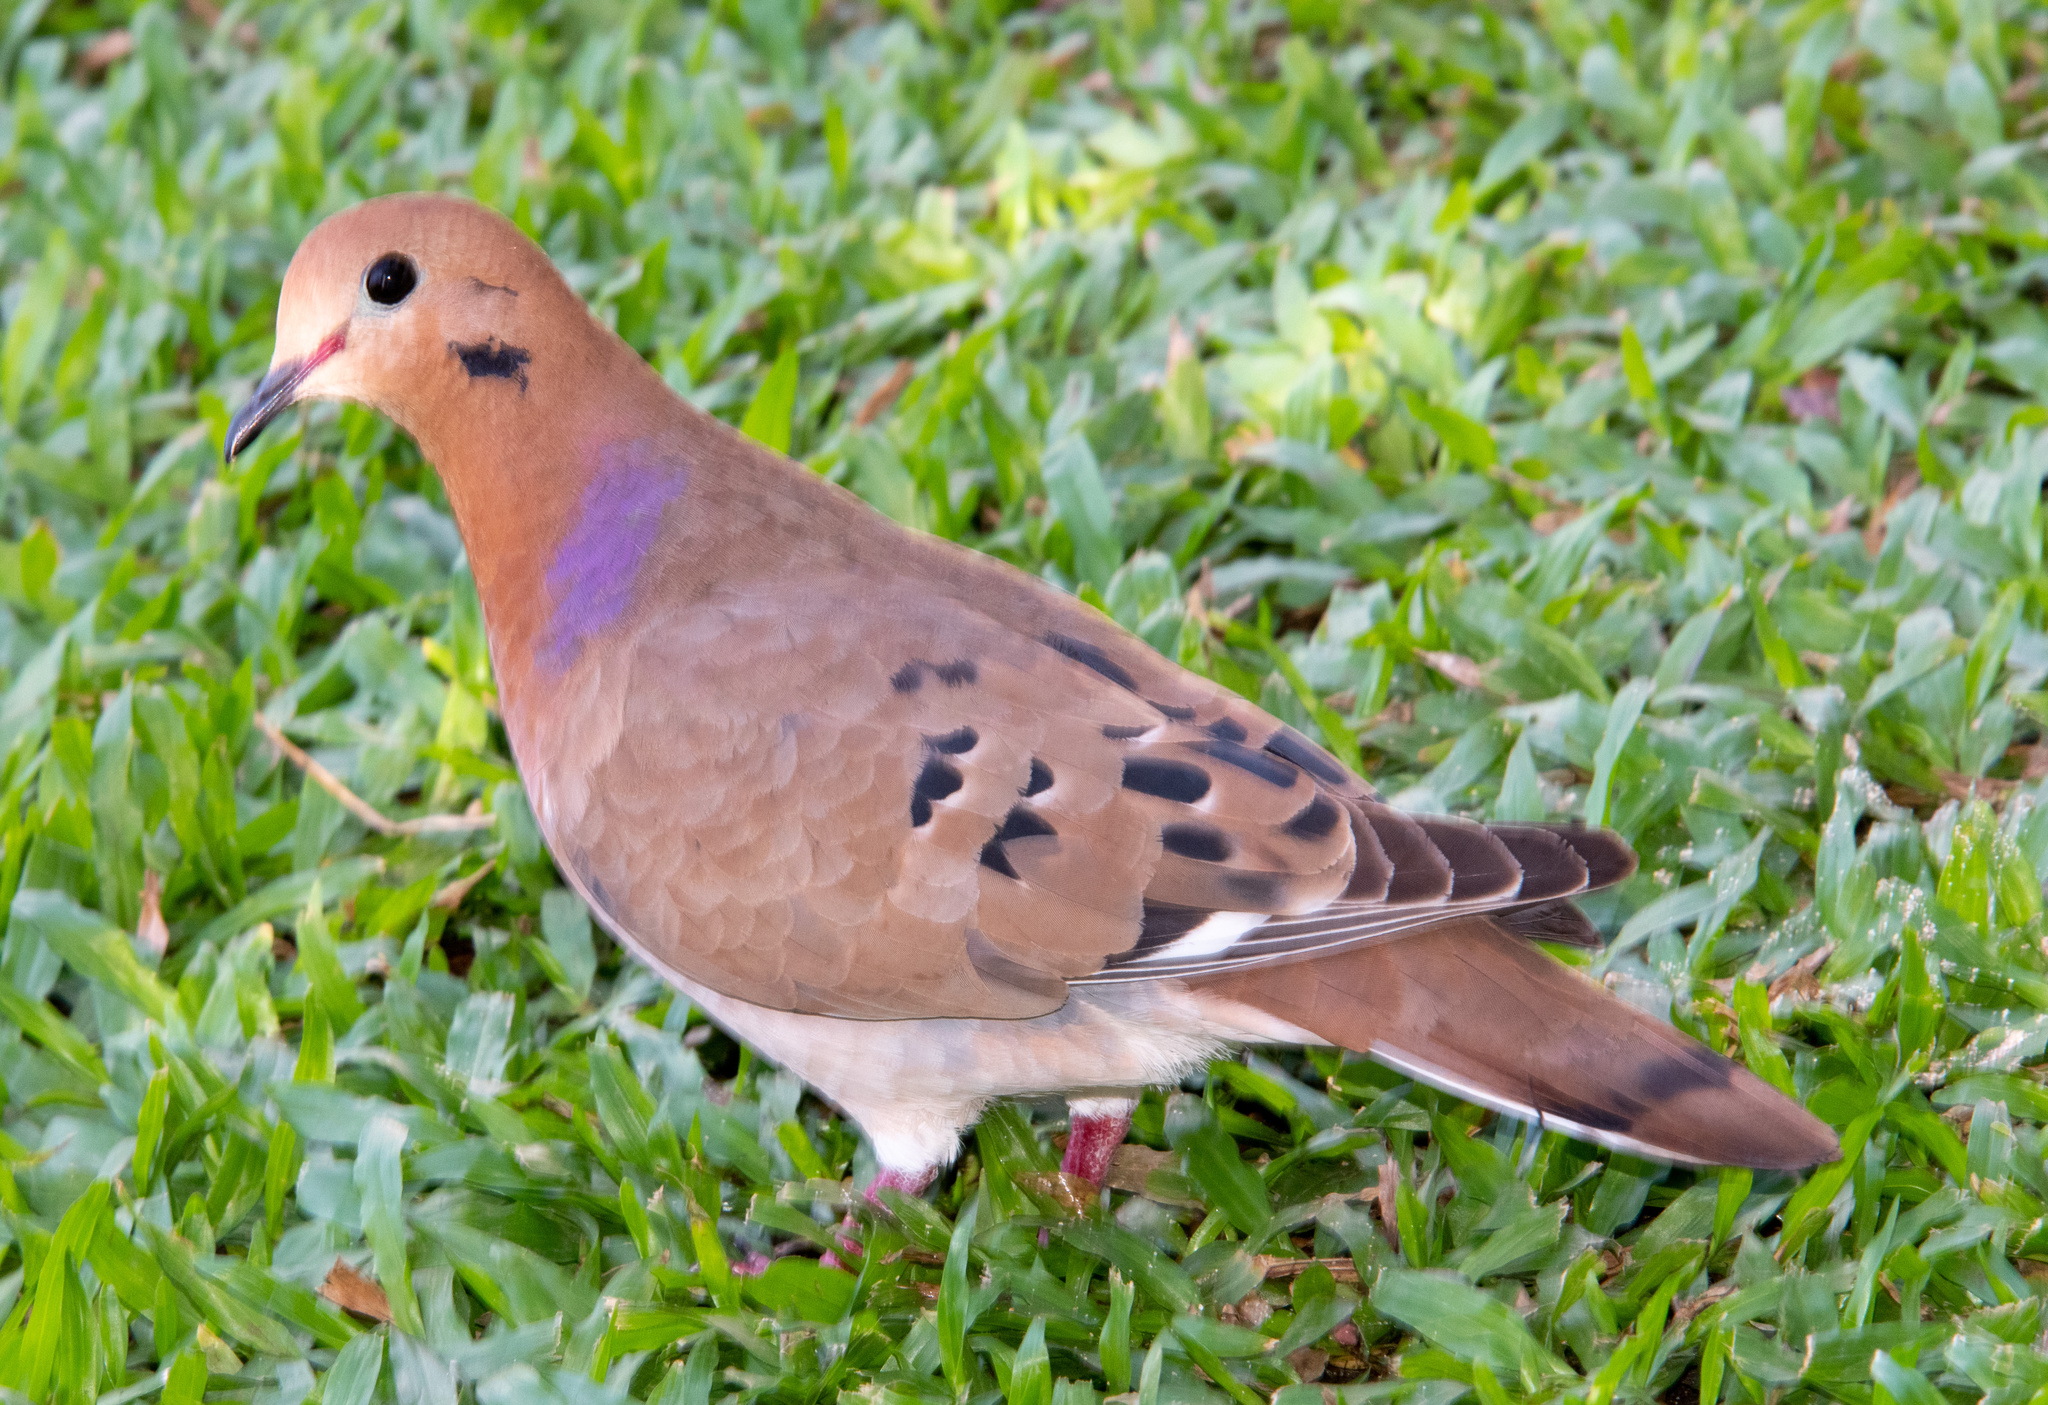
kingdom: Animalia
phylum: Chordata
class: Aves
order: Columbiformes
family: Columbidae
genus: Zenaida
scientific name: Zenaida aurita
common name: Zenaida dove
